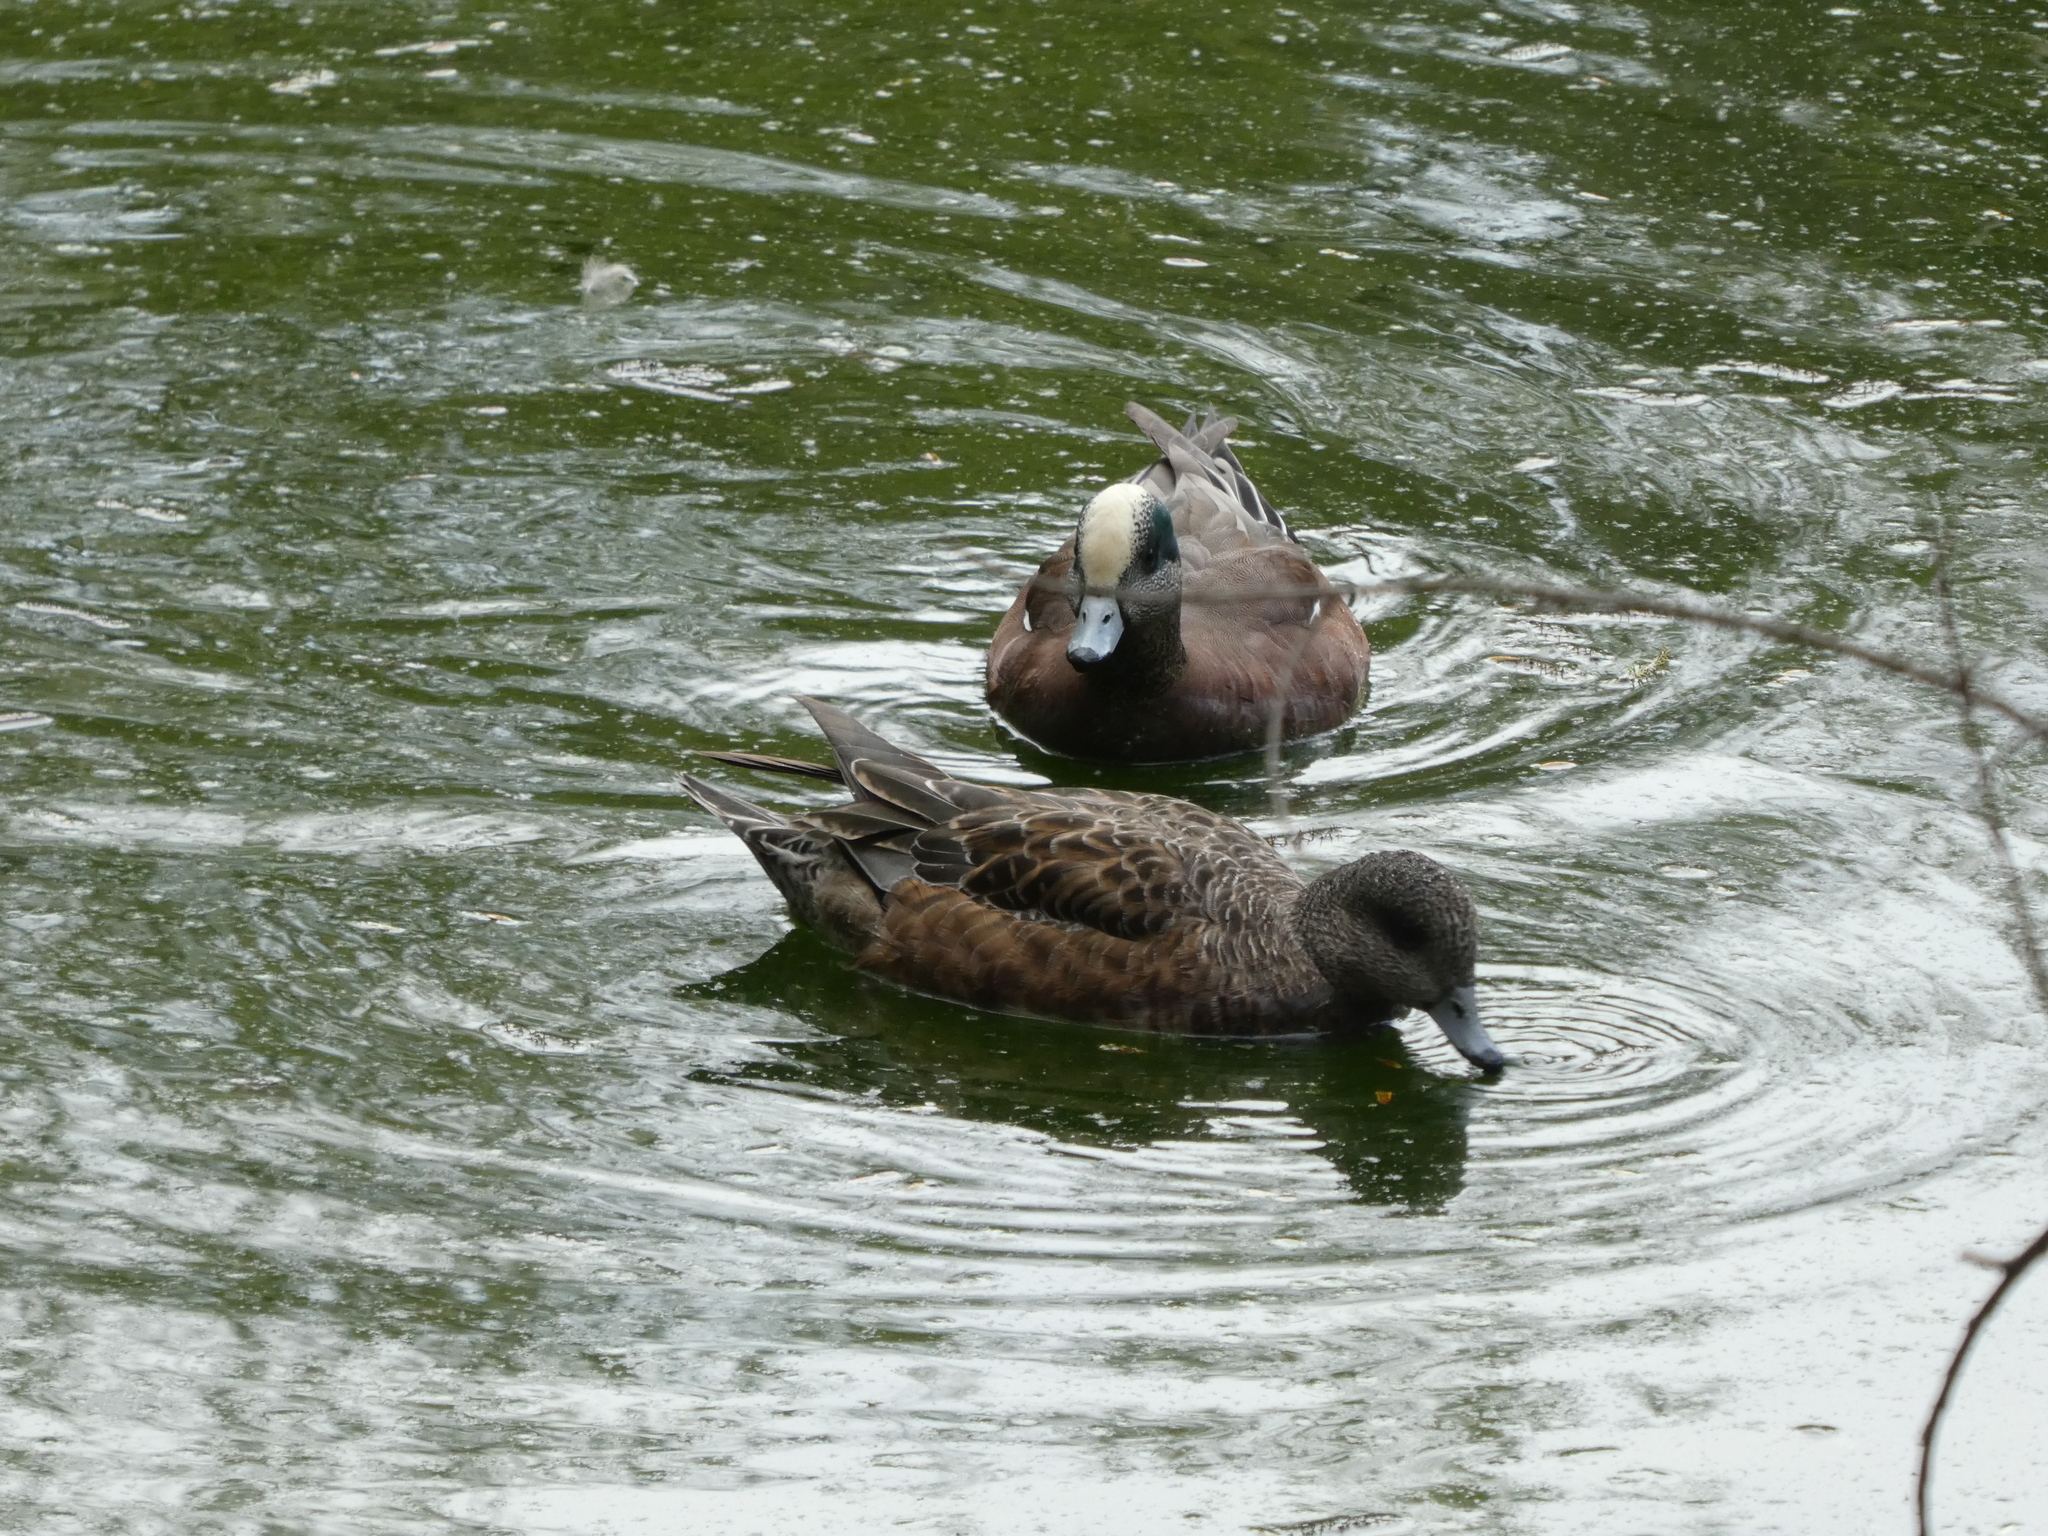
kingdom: Animalia
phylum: Chordata
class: Aves
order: Anseriformes
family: Anatidae
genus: Mareca
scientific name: Mareca americana
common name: American wigeon
